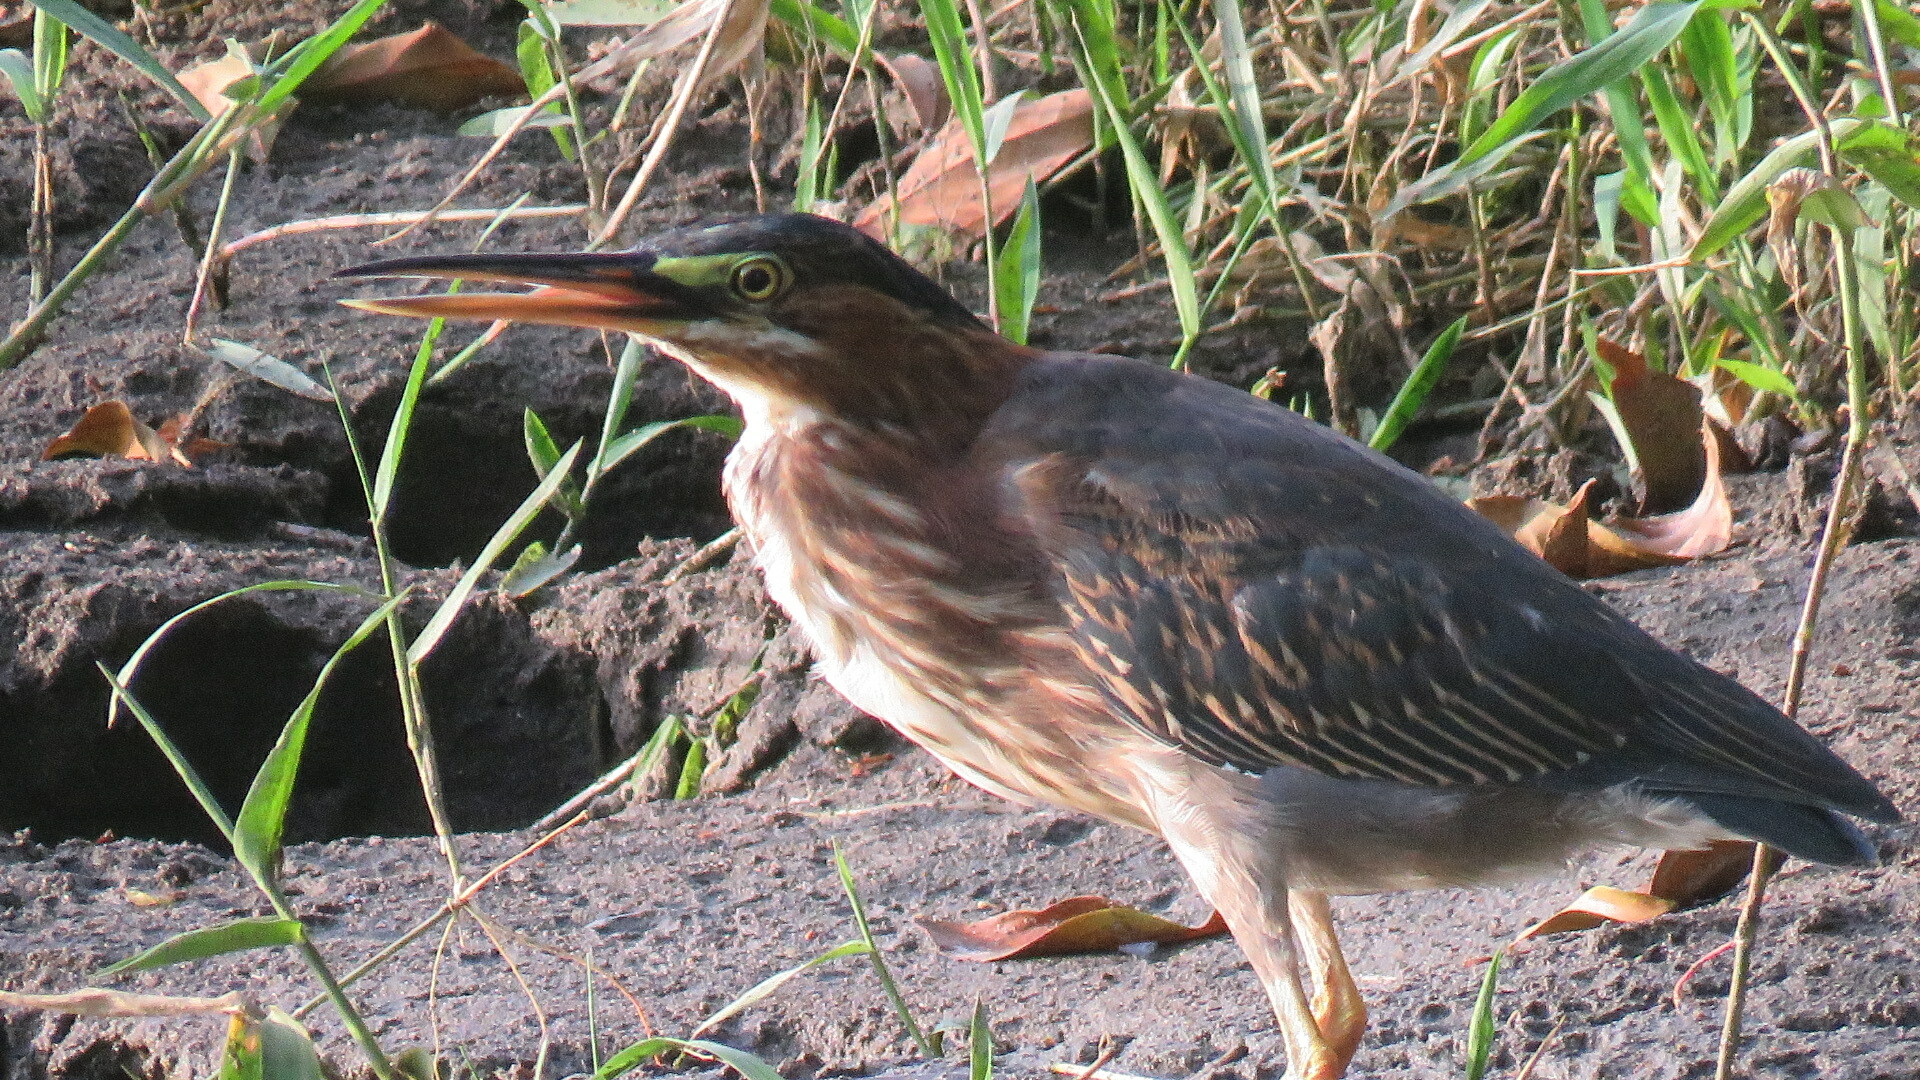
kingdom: Animalia
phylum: Chordata
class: Aves
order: Pelecaniformes
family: Ardeidae
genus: Butorides
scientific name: Butorides virescens
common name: Green heron
